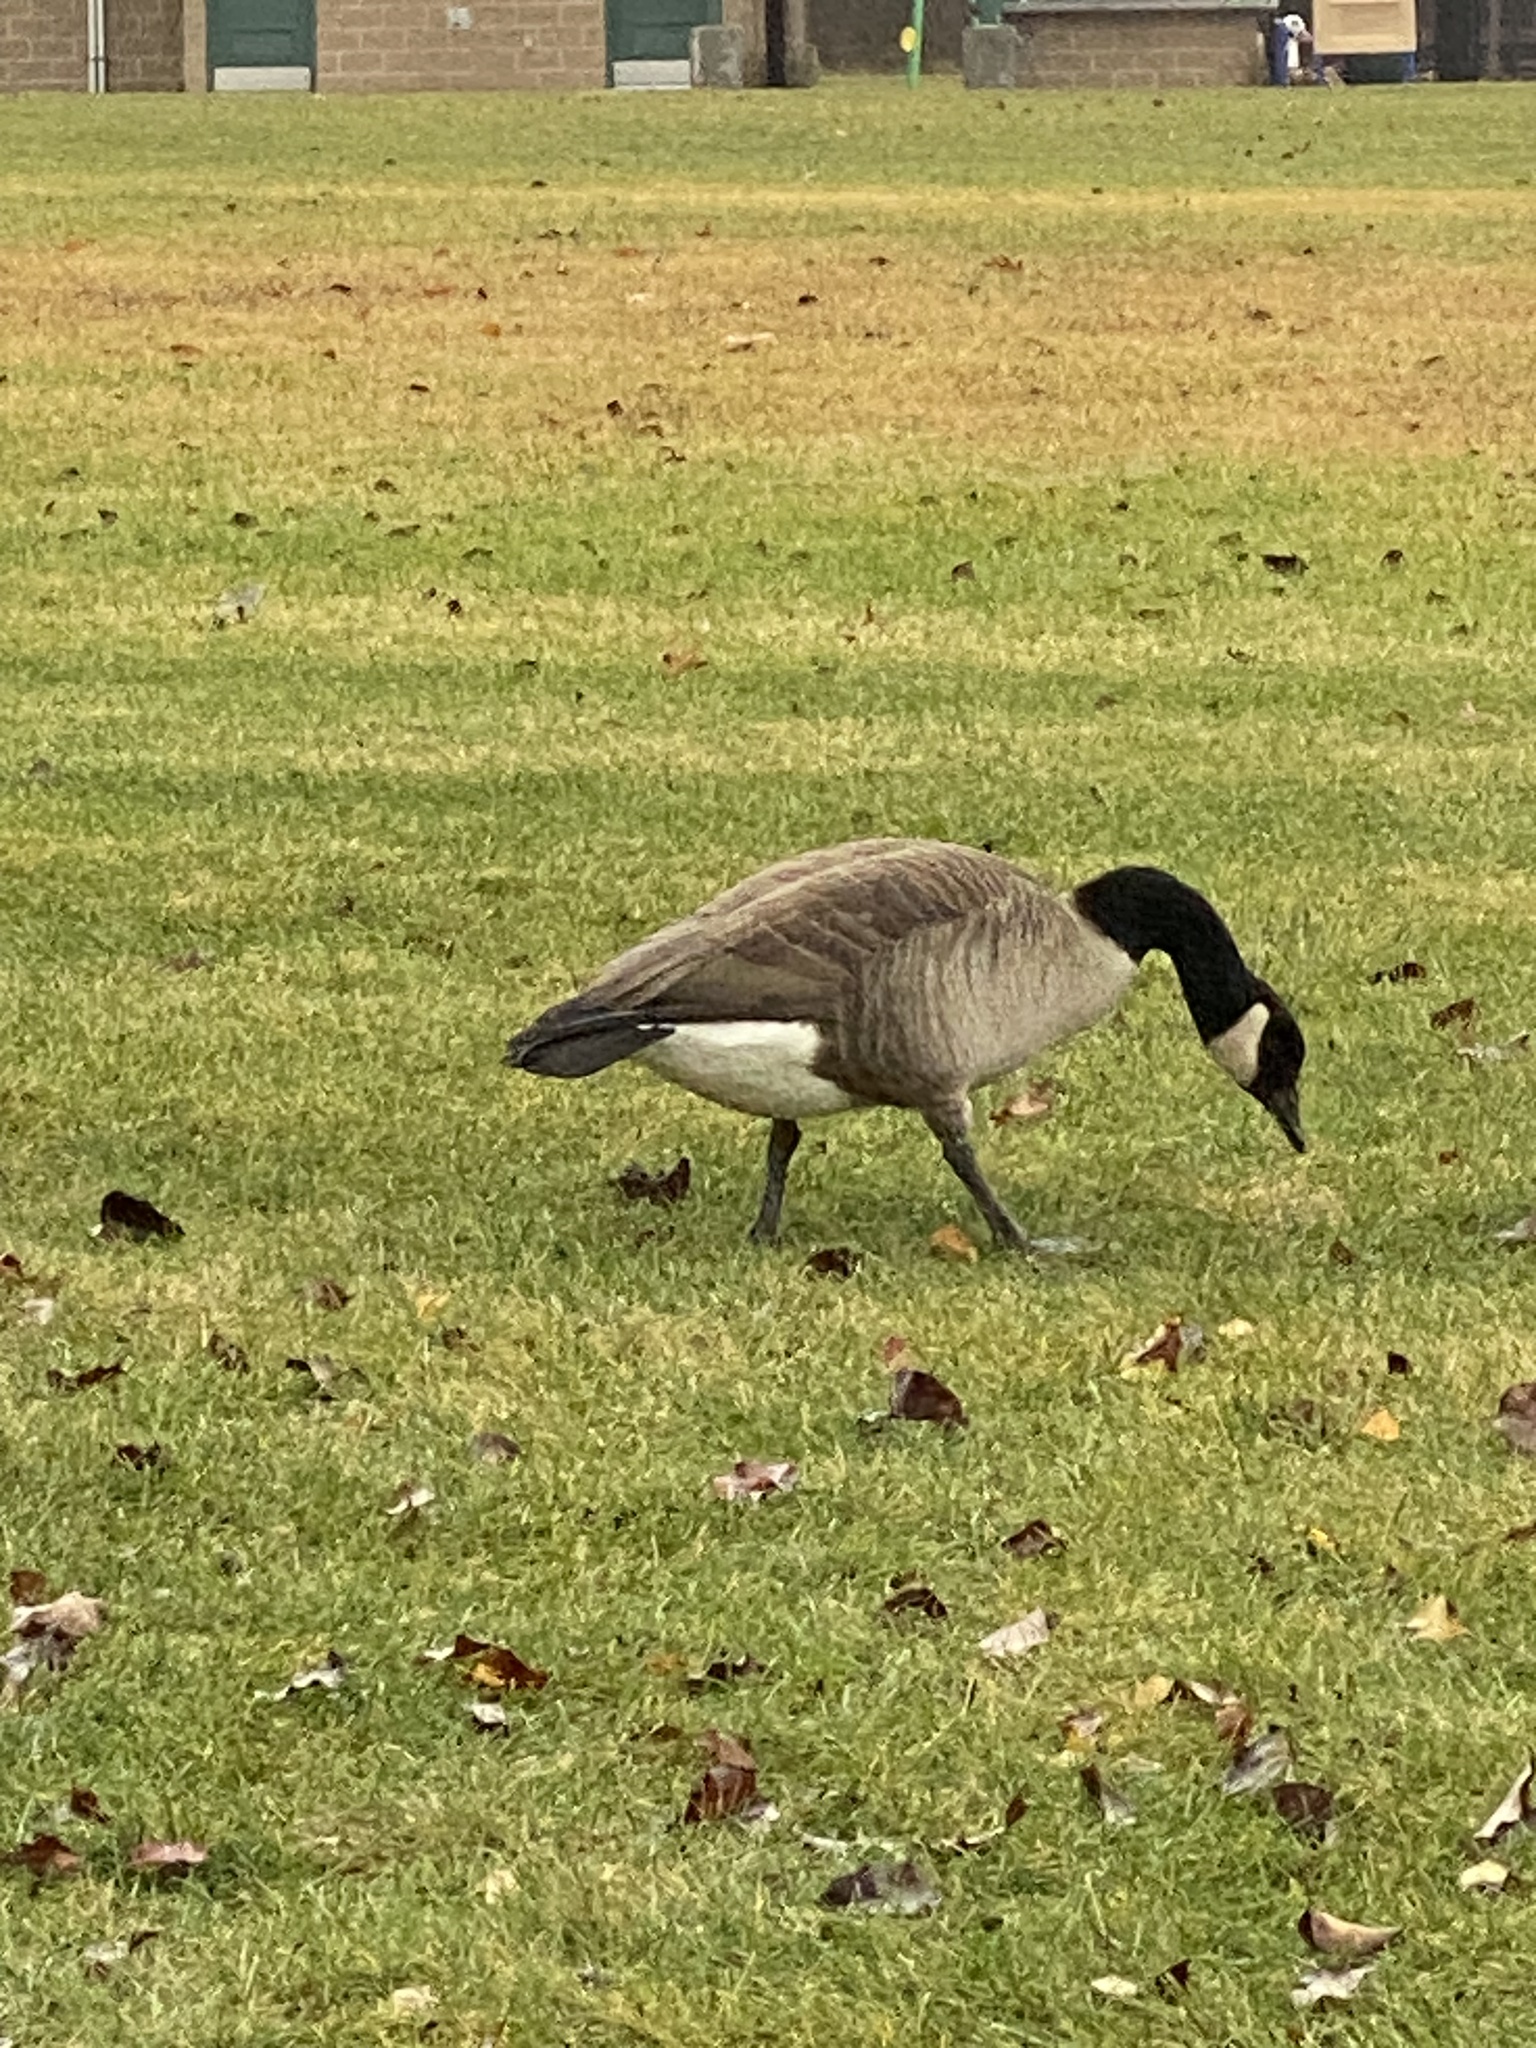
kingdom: Animalia
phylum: Chordata
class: Aves
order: Anseriformes
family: Anatidae
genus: Branta
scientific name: Branta canadensis
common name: Canada goose
